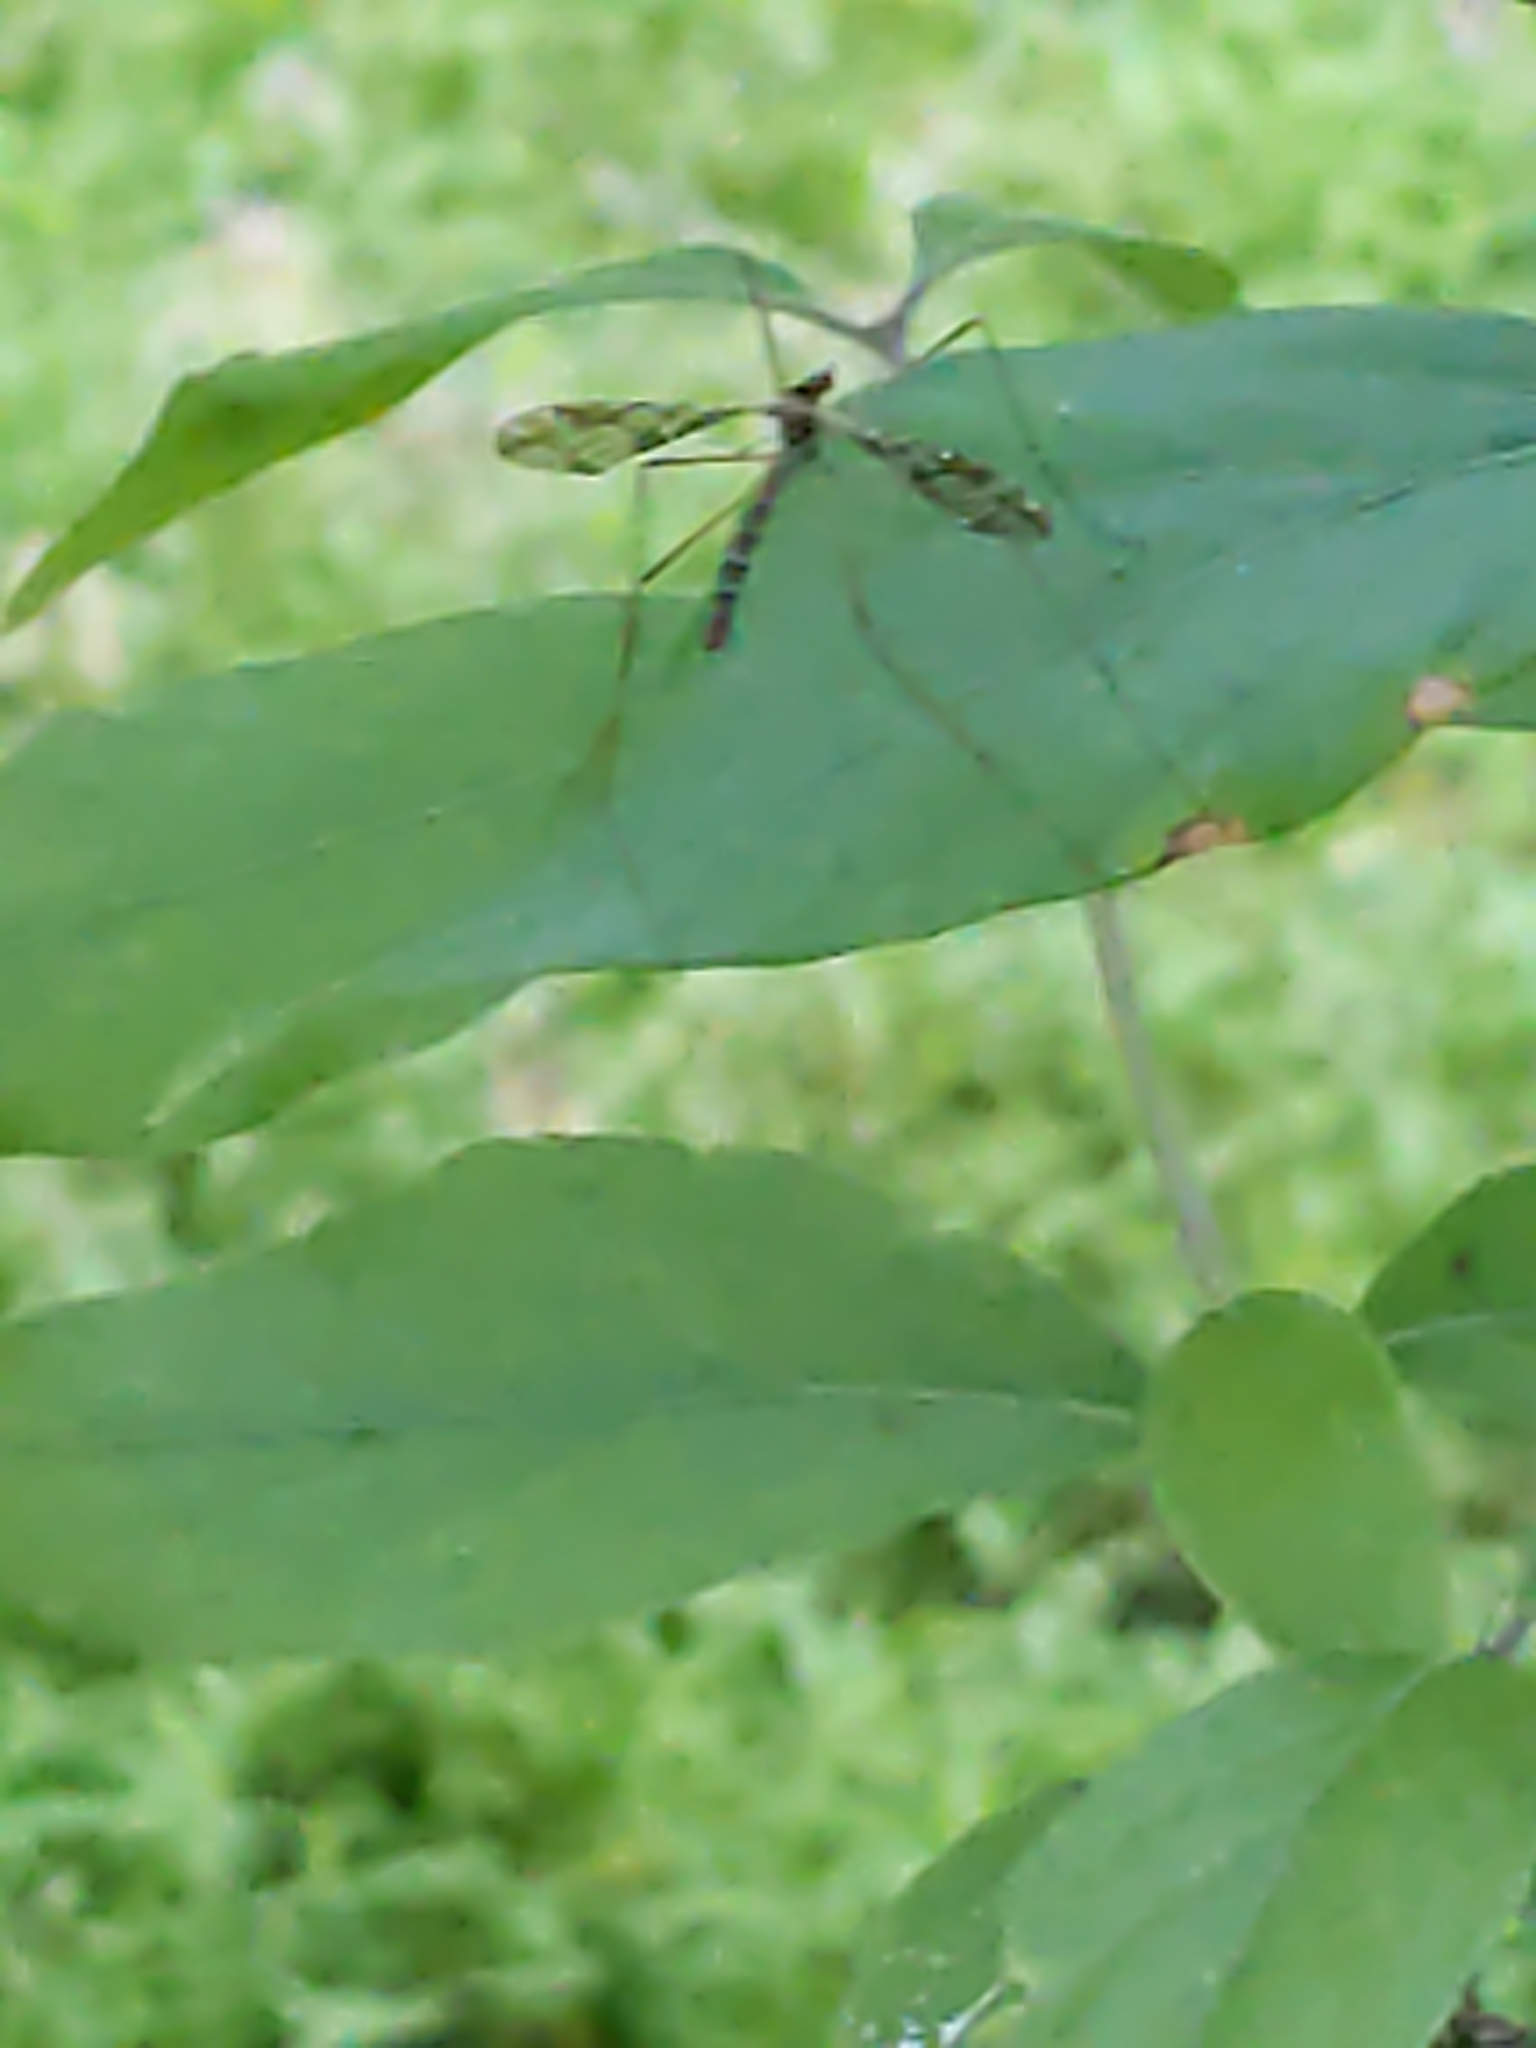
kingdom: Animalia
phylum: Arthropoda
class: Insecta
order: Diptera
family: Limoniidae
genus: Epiphragma
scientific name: Epiphragma solatrix
